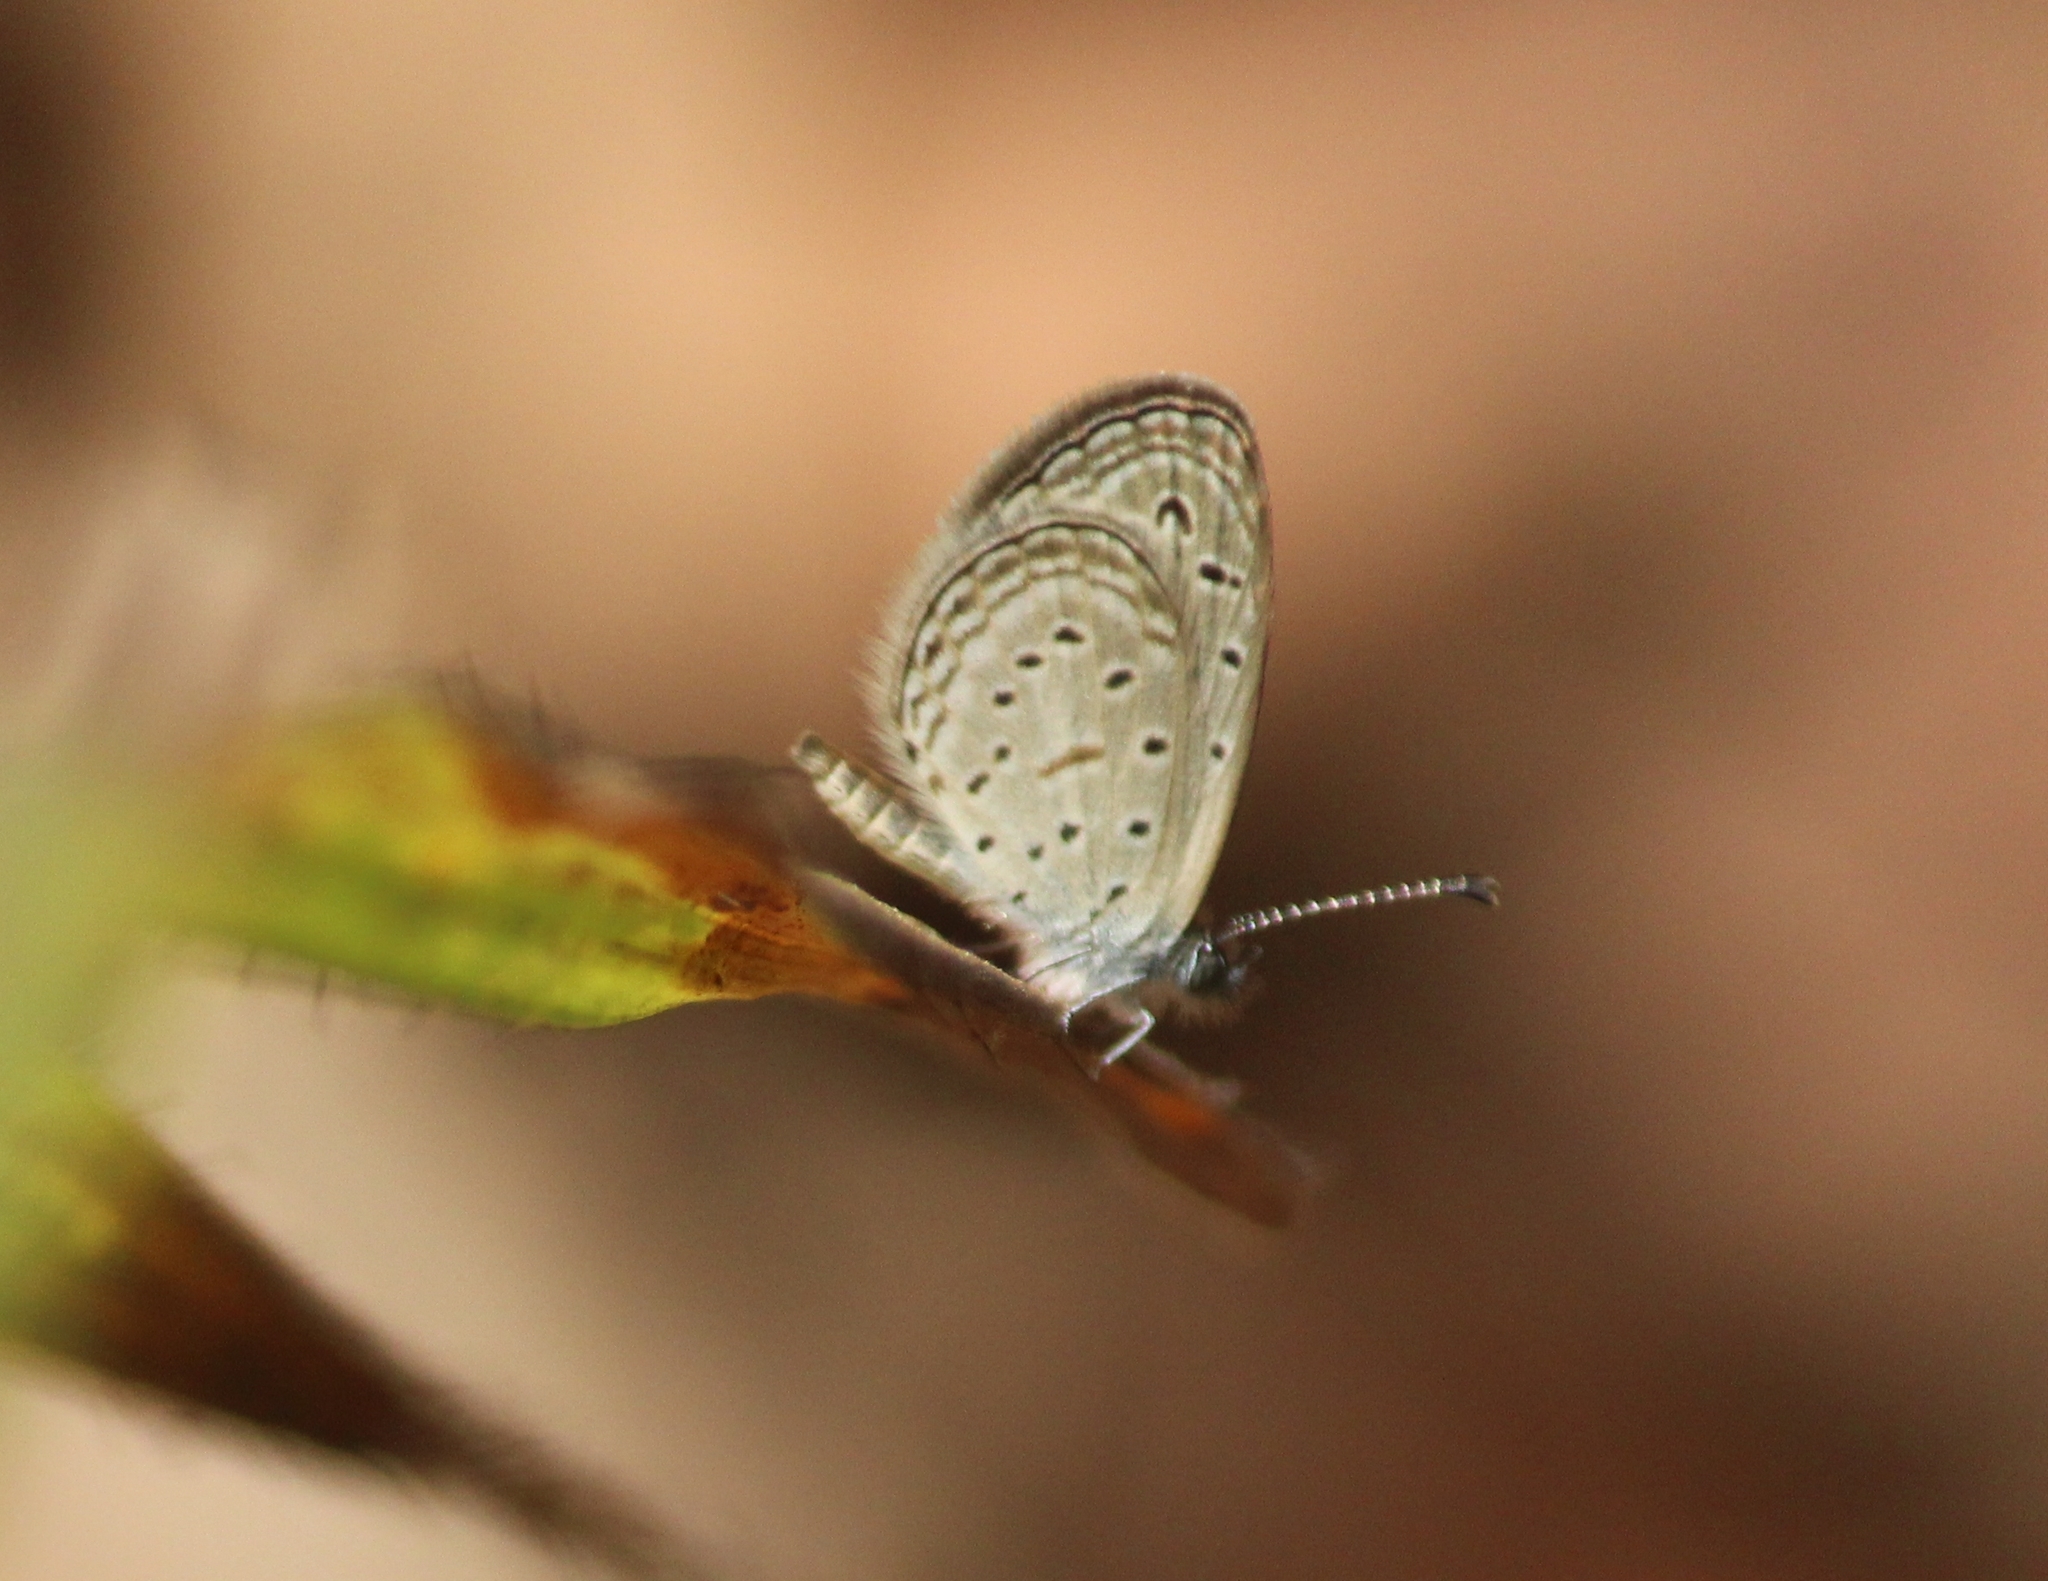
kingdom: Animalia
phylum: Arthropoda
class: Insecta
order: Lepidoptera
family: Lycaenidae
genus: Zizula
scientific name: Zizula hylax
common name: Gaika blue
